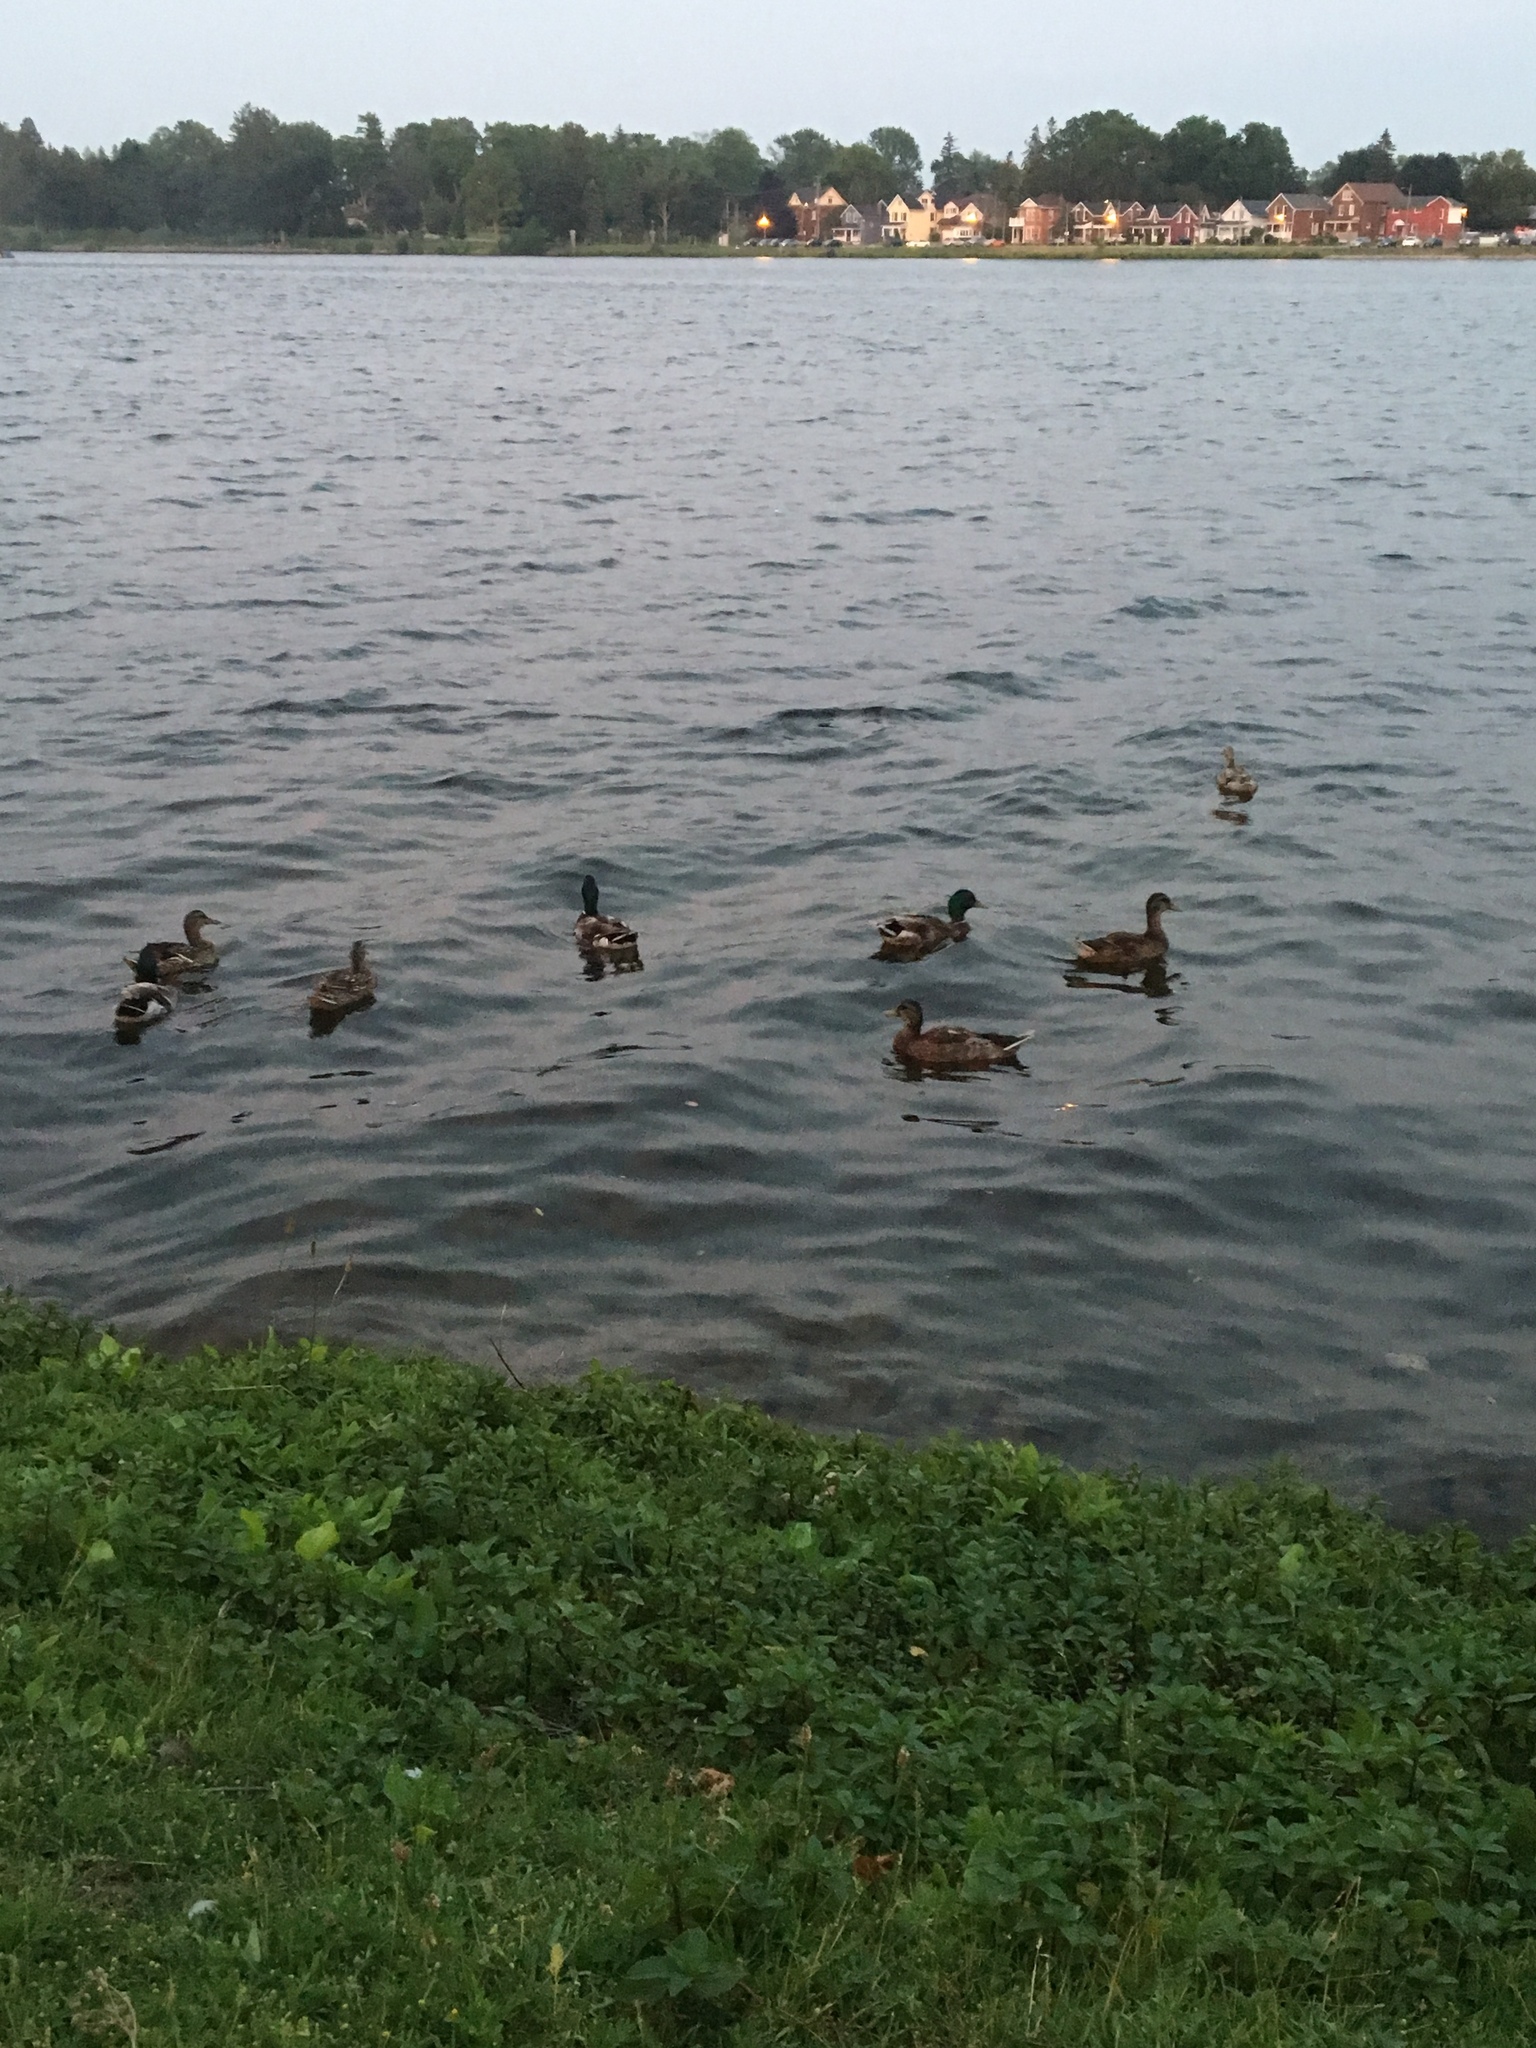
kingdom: Animalia
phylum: Chordata
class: Aves
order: Anseriformes
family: Anatidae
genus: Anas
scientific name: Anas platyrhynchos
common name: Mallard
